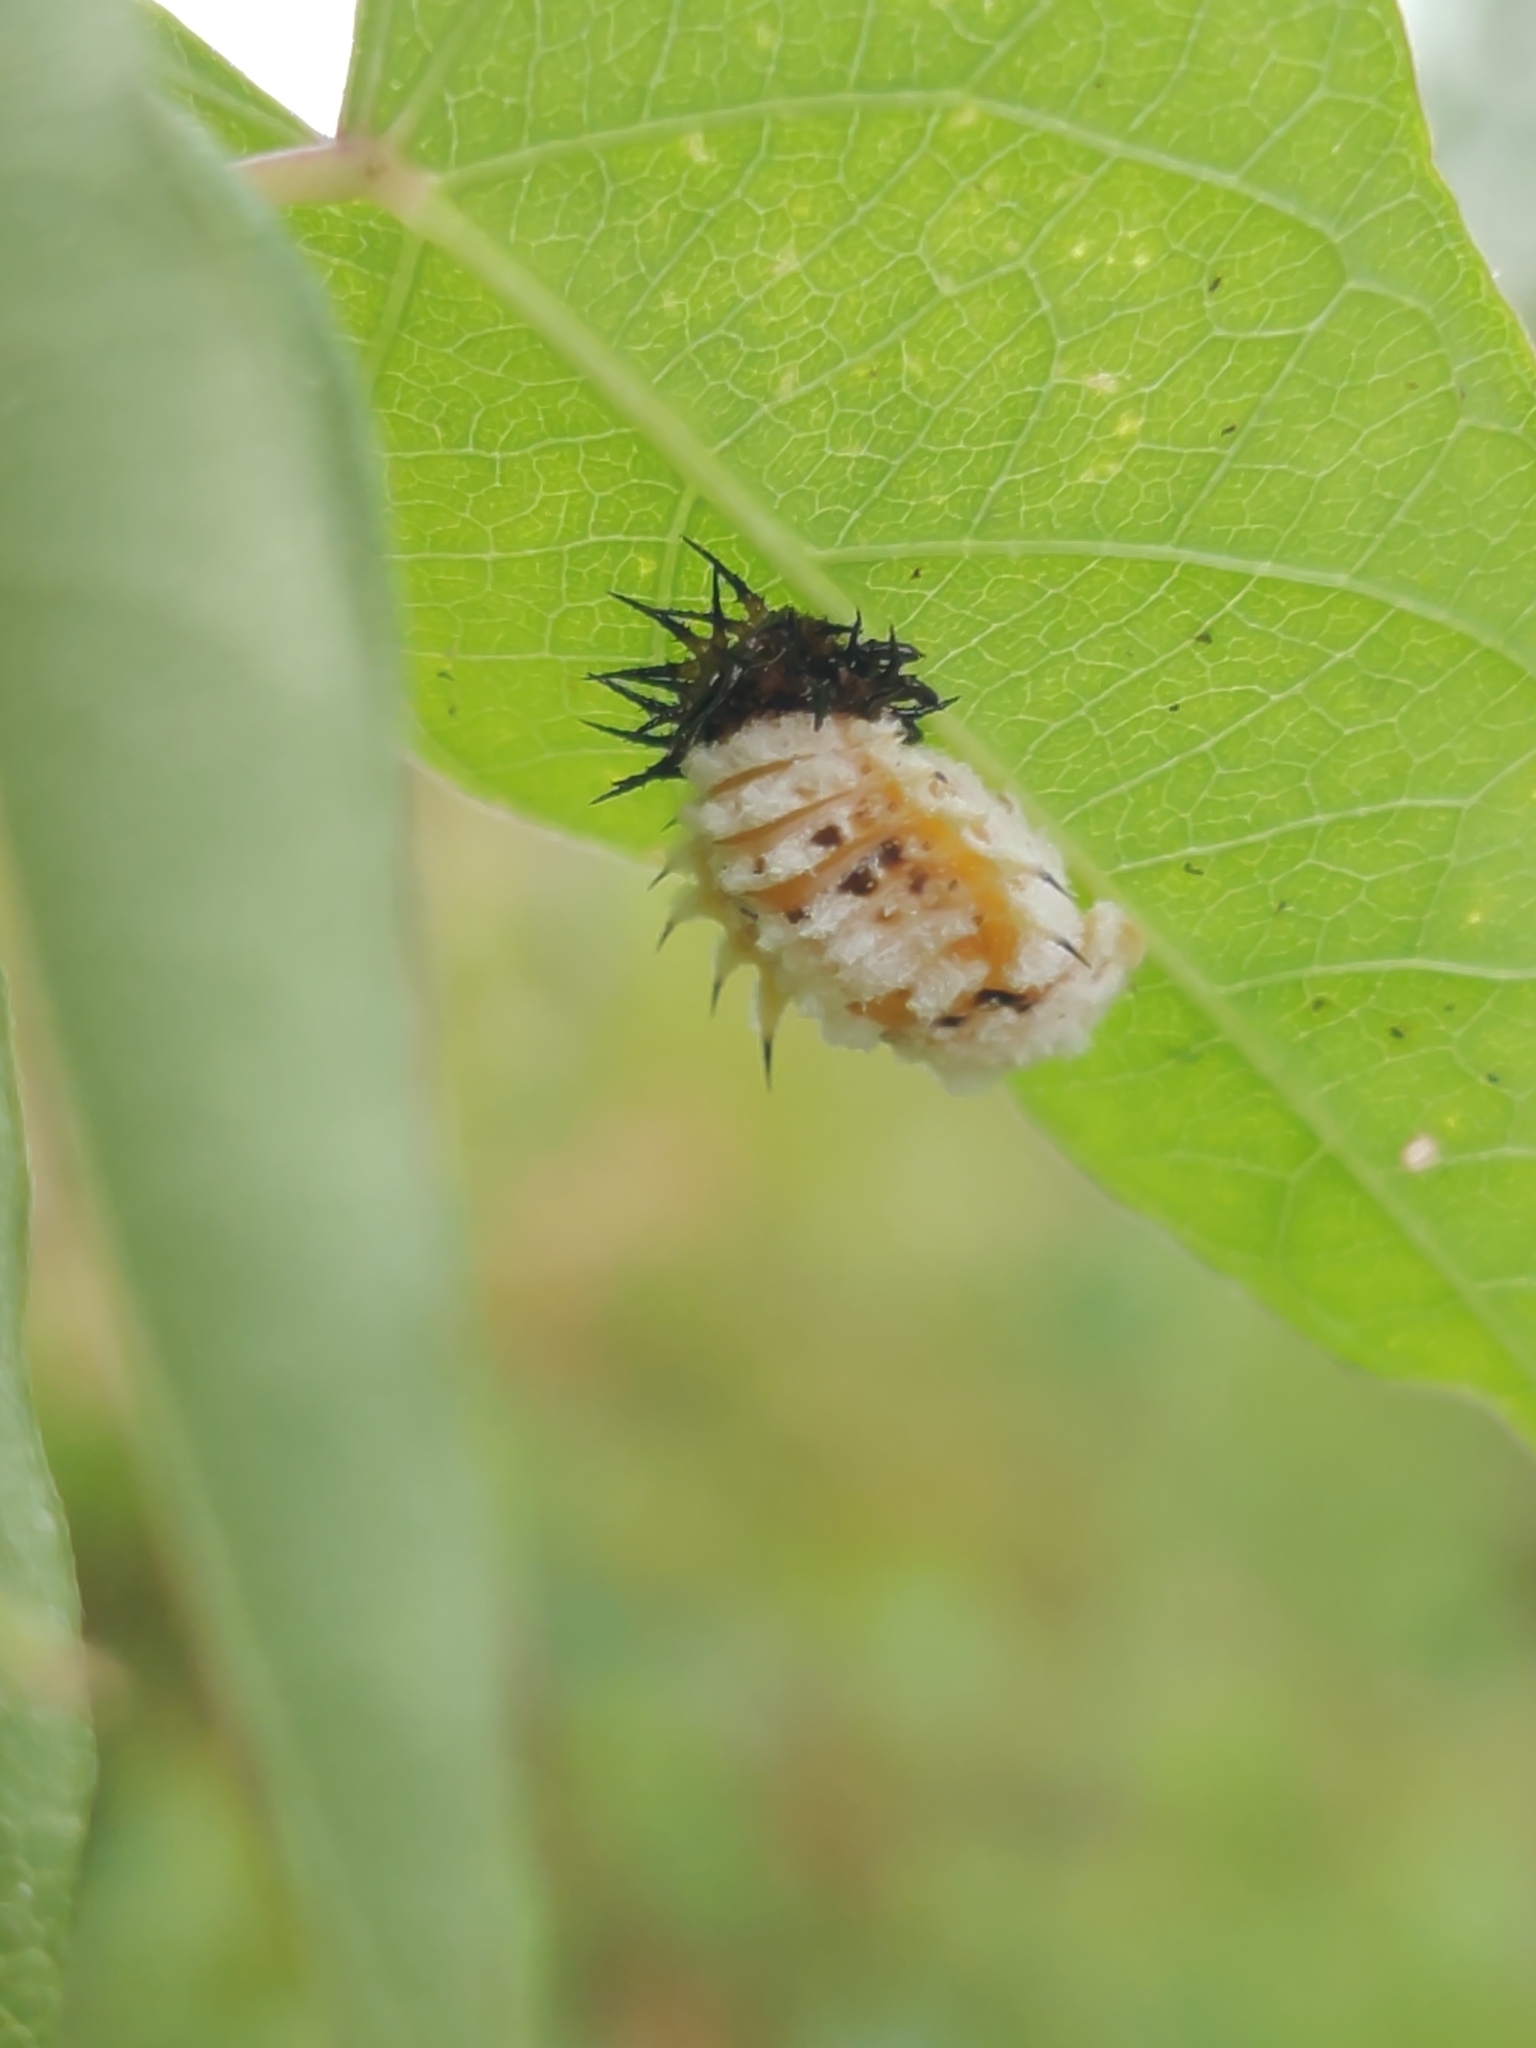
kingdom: Animalia
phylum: Arthropoda
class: Insecta
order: Coleoptera
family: Chrysomelidae
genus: Chelymorpha
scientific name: Chelymorpha cassidea
